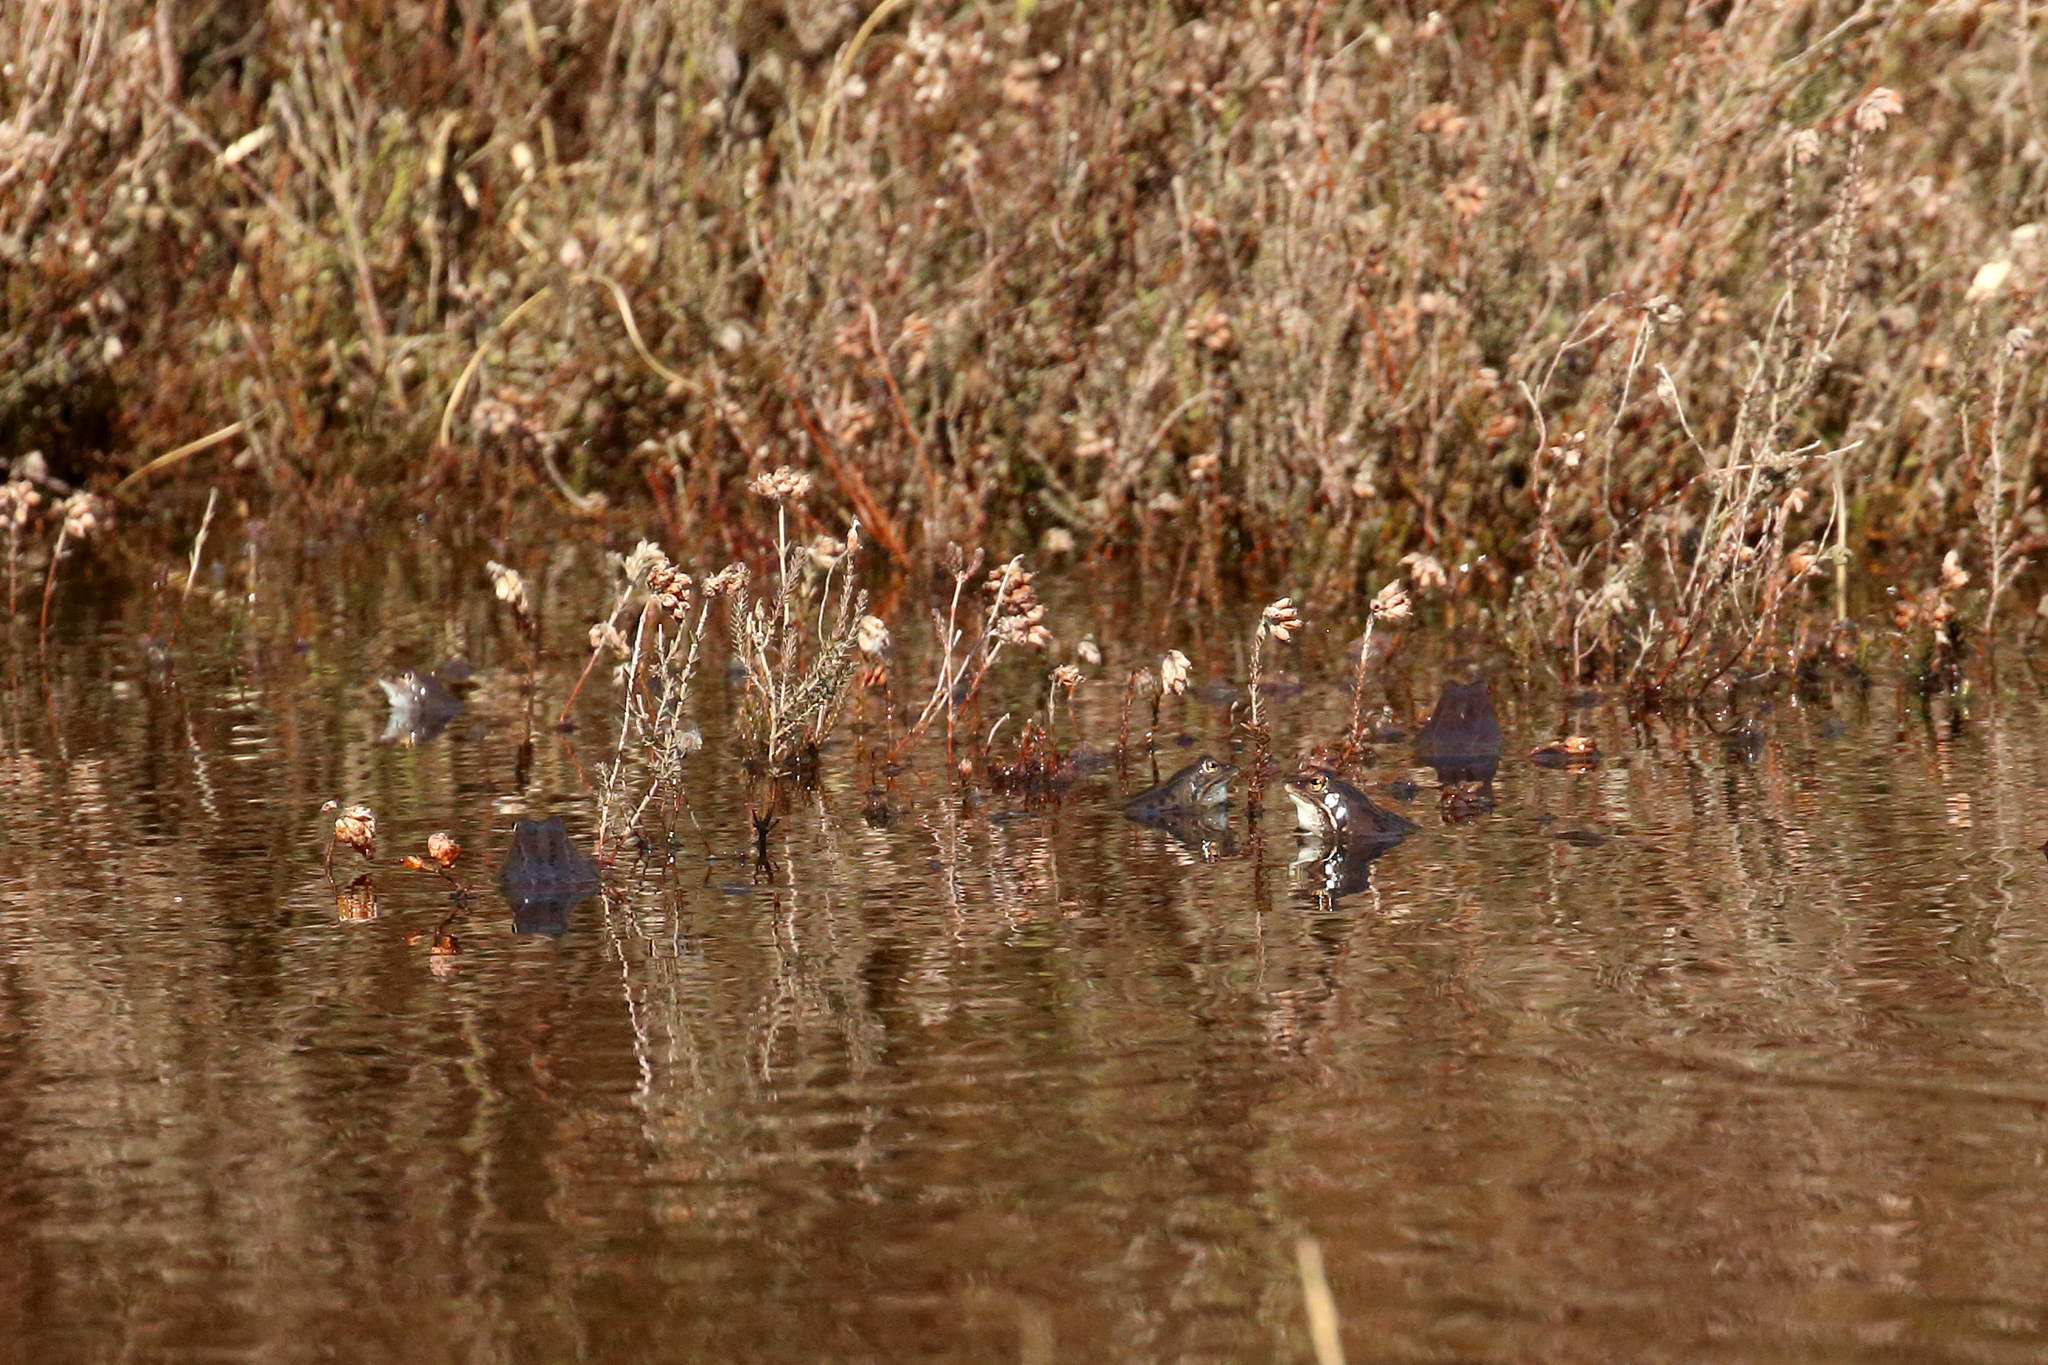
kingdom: Animalia
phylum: Chordata
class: Amphibia
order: Anura
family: Ranidae
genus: Rana
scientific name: Rana arvalis
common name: Moor frog
